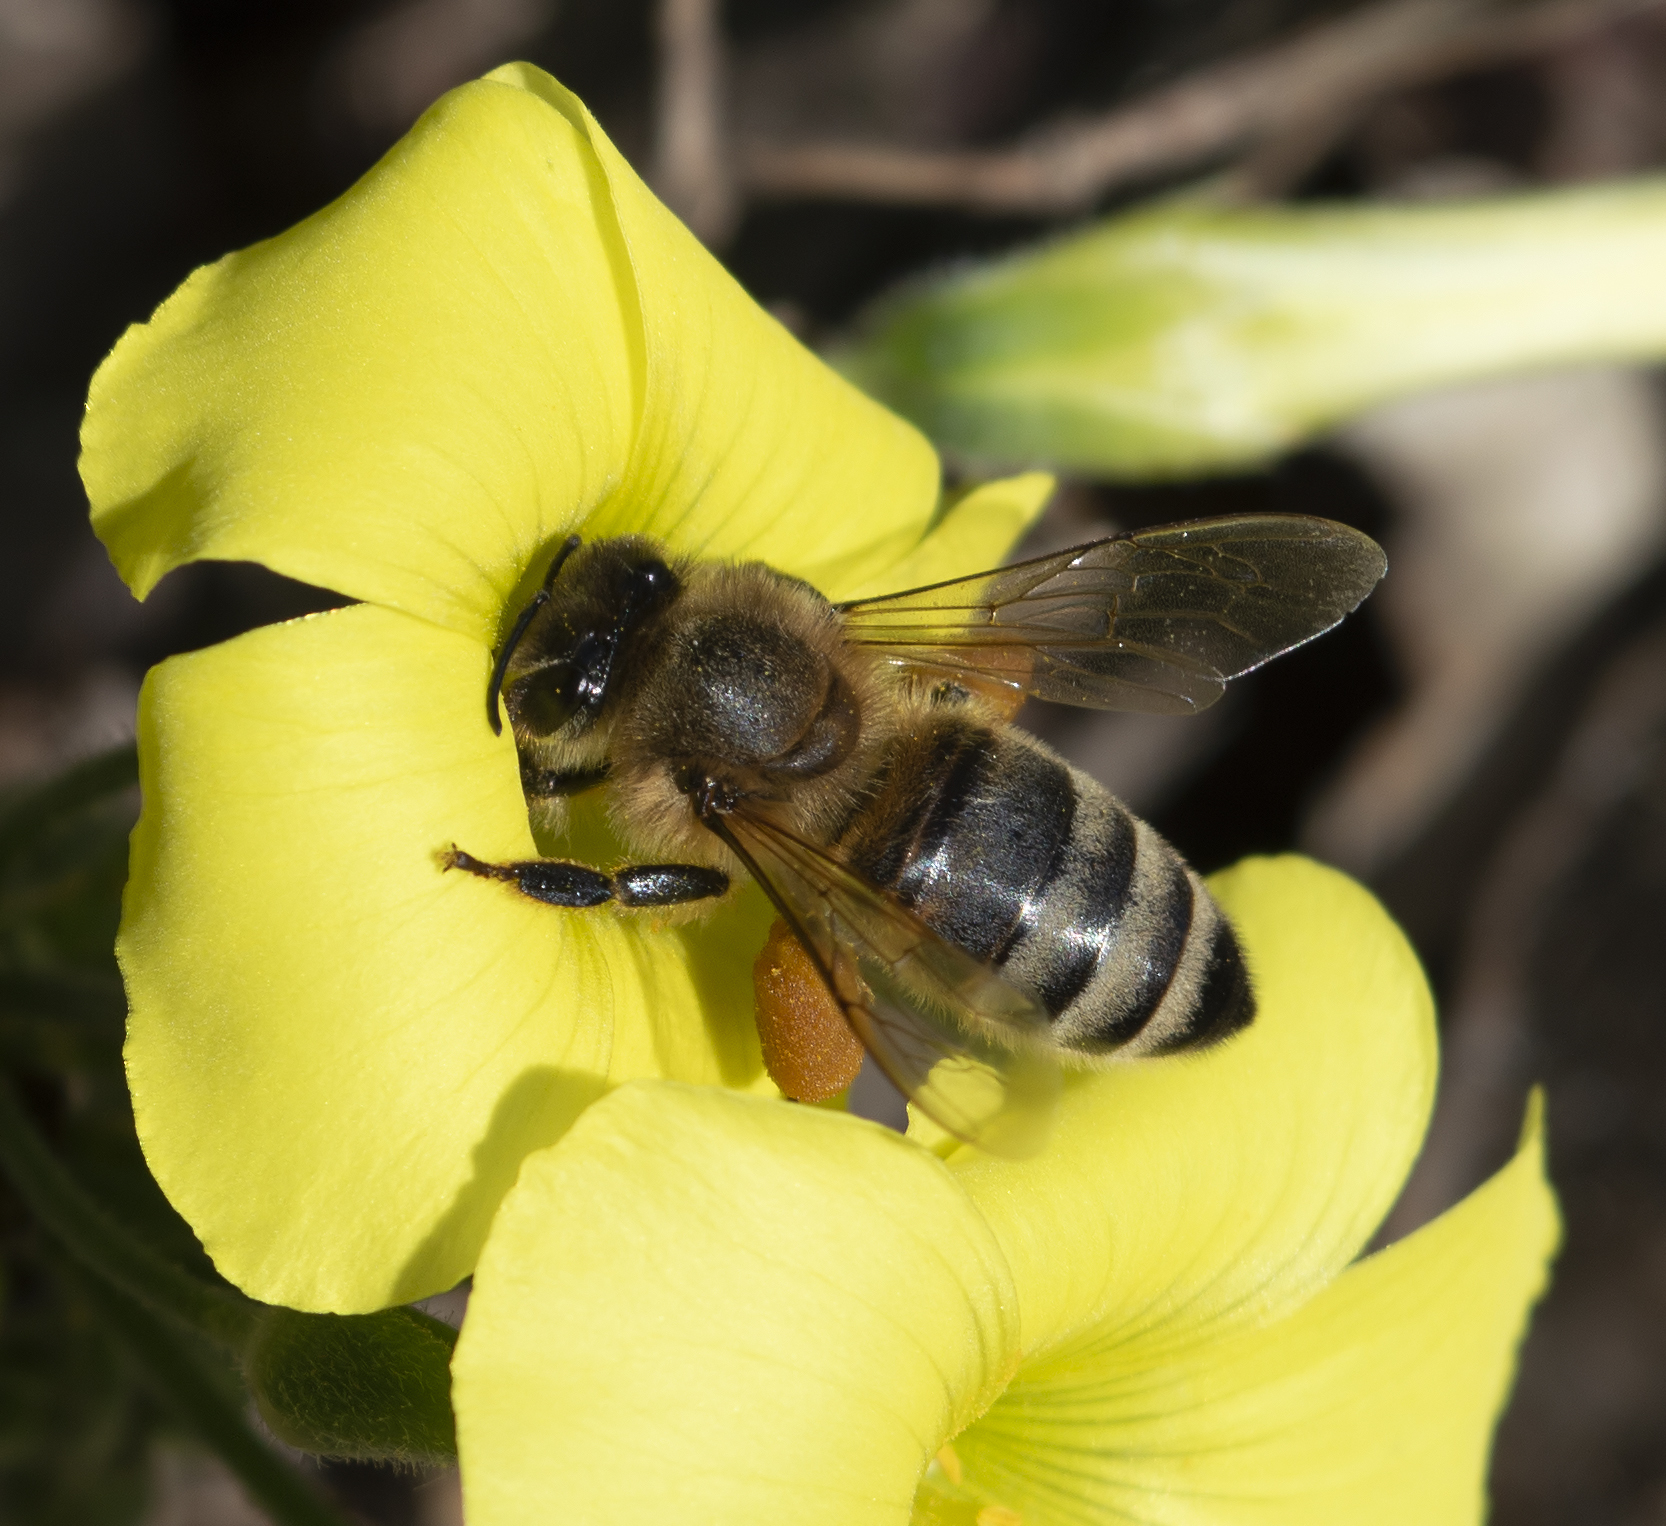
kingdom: Animalia
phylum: Arthropoda
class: Insecta
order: Hymenoptera
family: Apidae
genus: Apis
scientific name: Apis mellifera
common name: Honey bee
